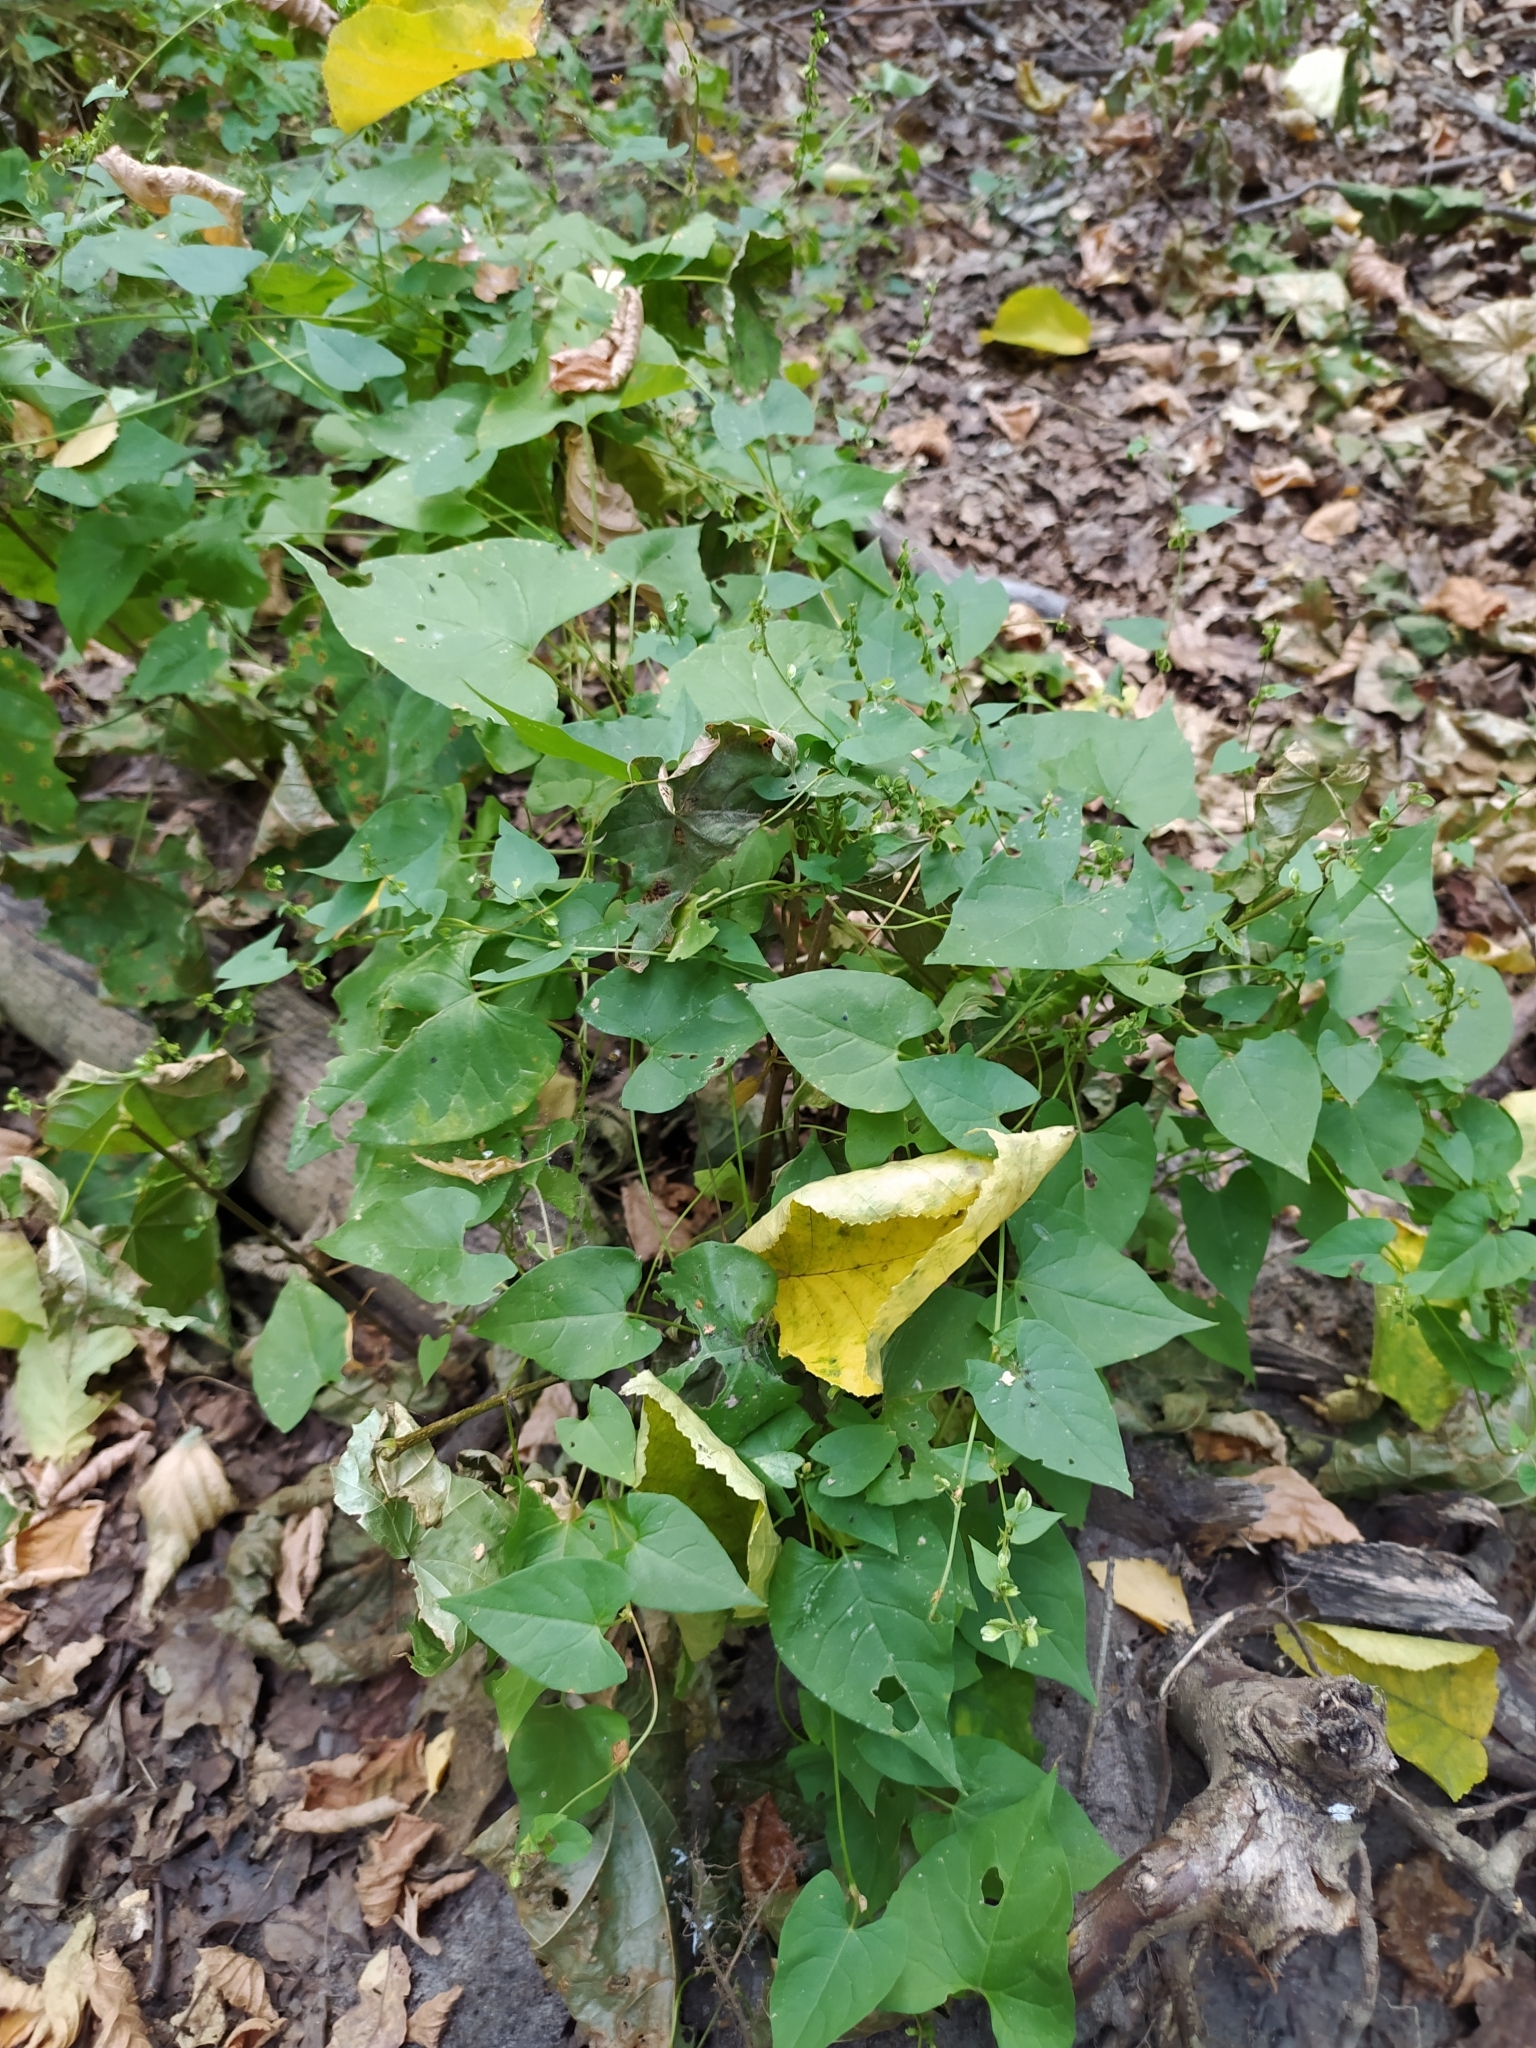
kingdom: Plantae
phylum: Tracheophyta
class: Magnoliopsida
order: Caryophyllales
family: Polygonaceae
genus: Fallopia
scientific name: Fallopia dumetorum
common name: Copse-bindweed
